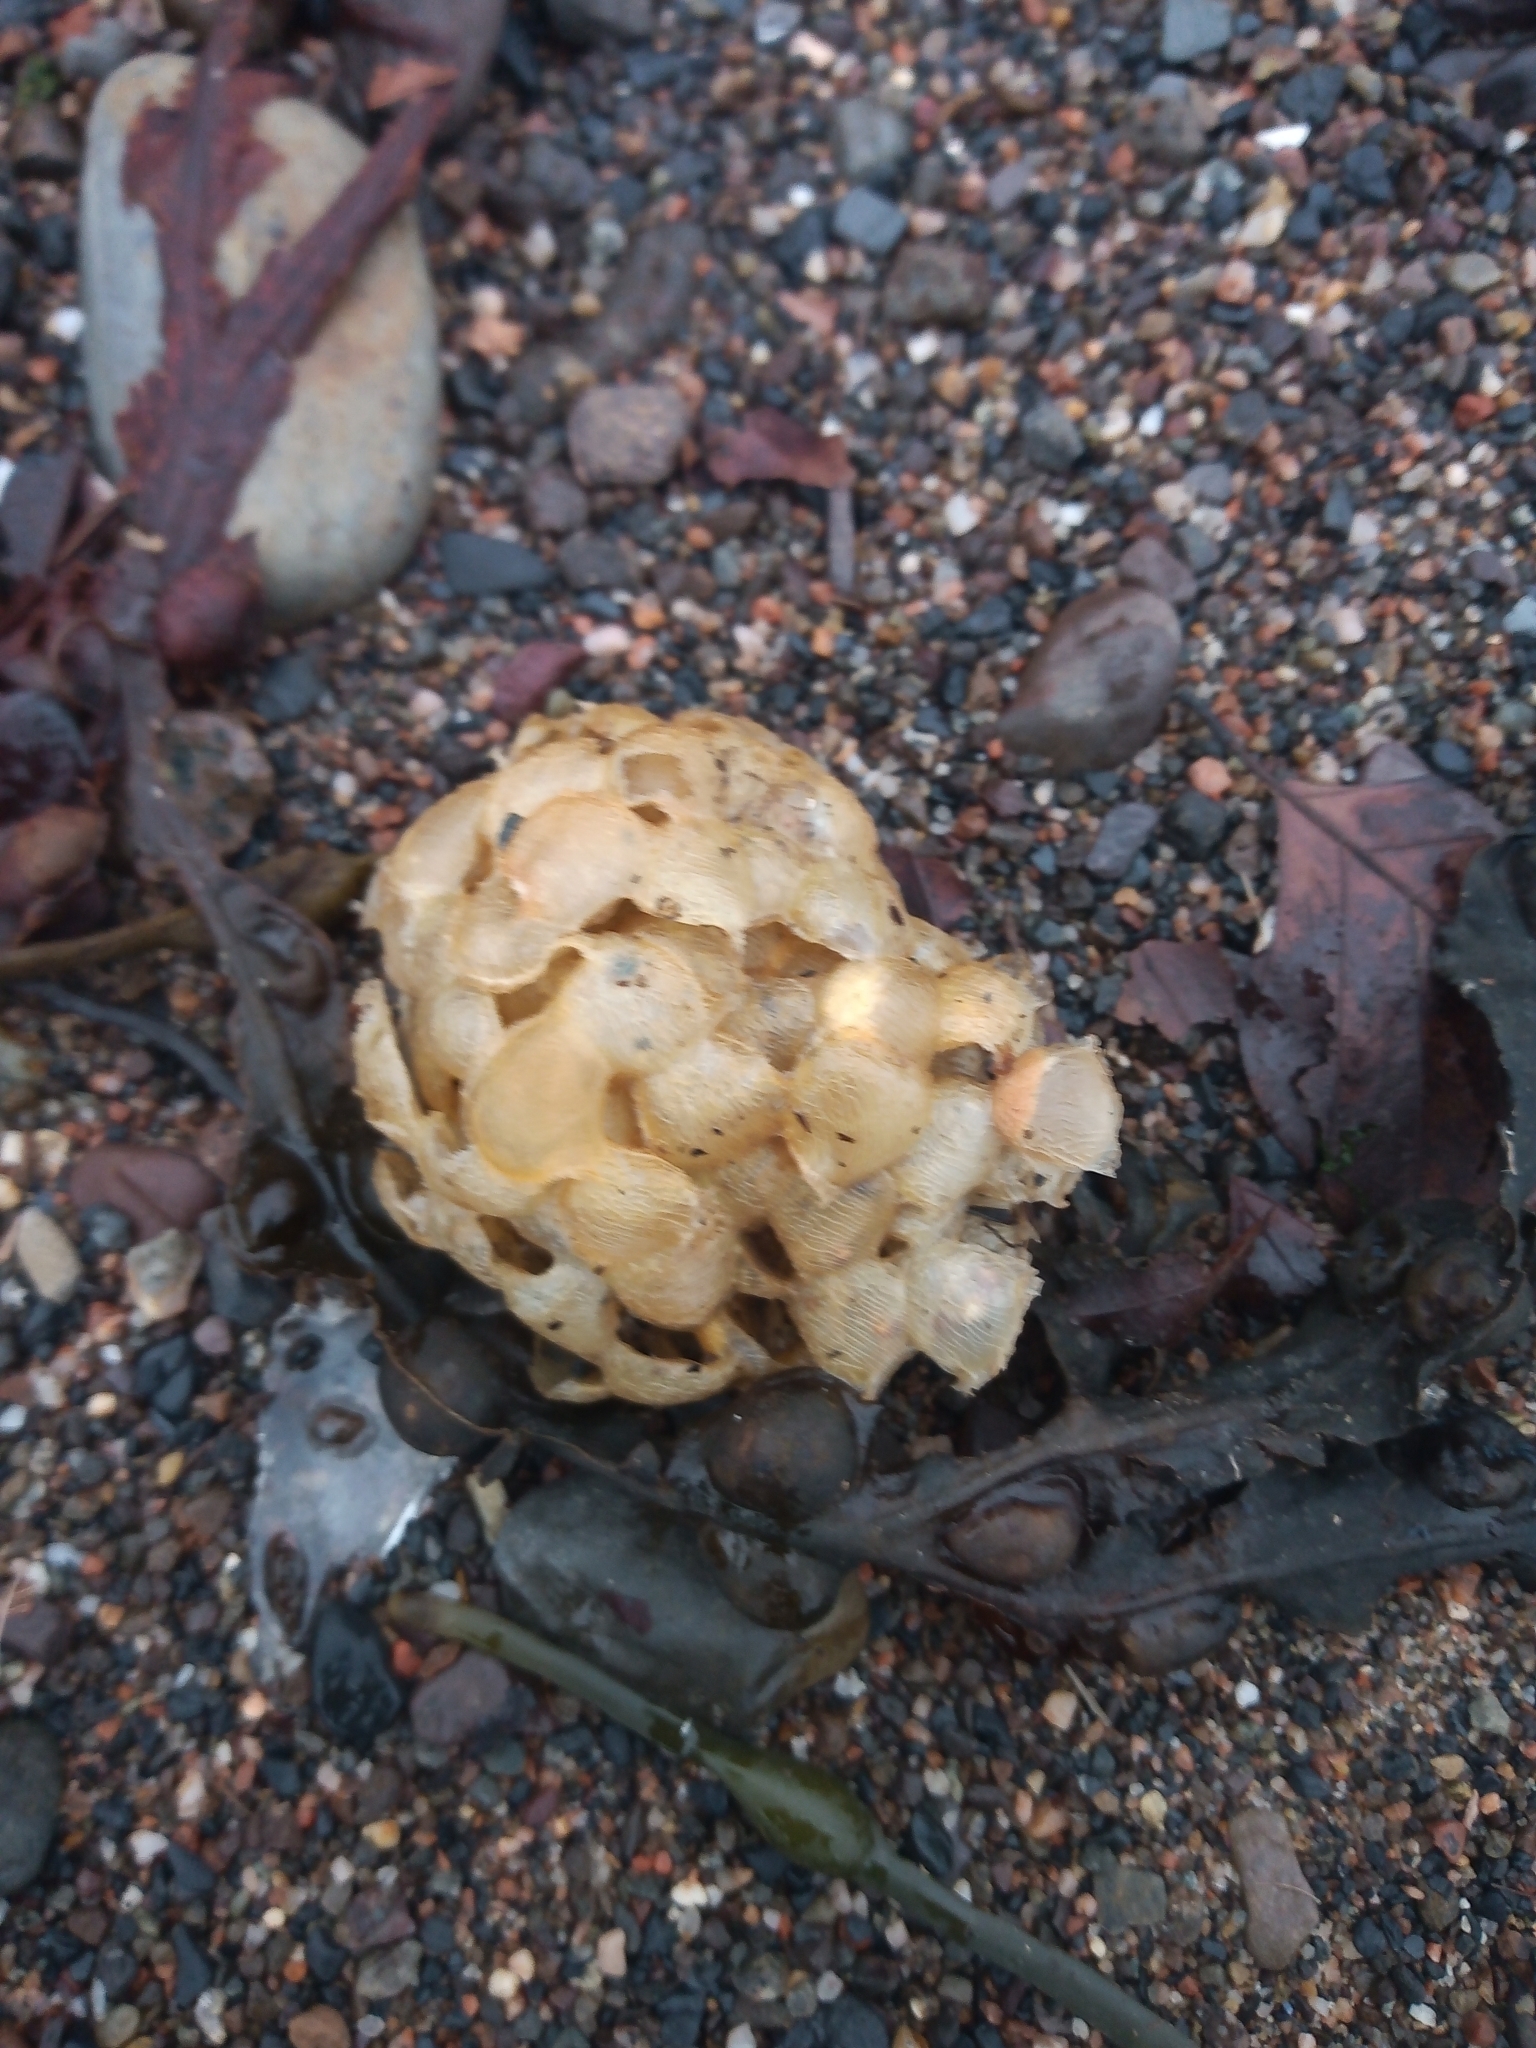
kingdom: Animalia
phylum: Mollusca
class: Gastropoda
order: Neogastropoda
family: Buccinidae
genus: Buccinum
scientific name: Buccinum undatum
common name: Common whelk
